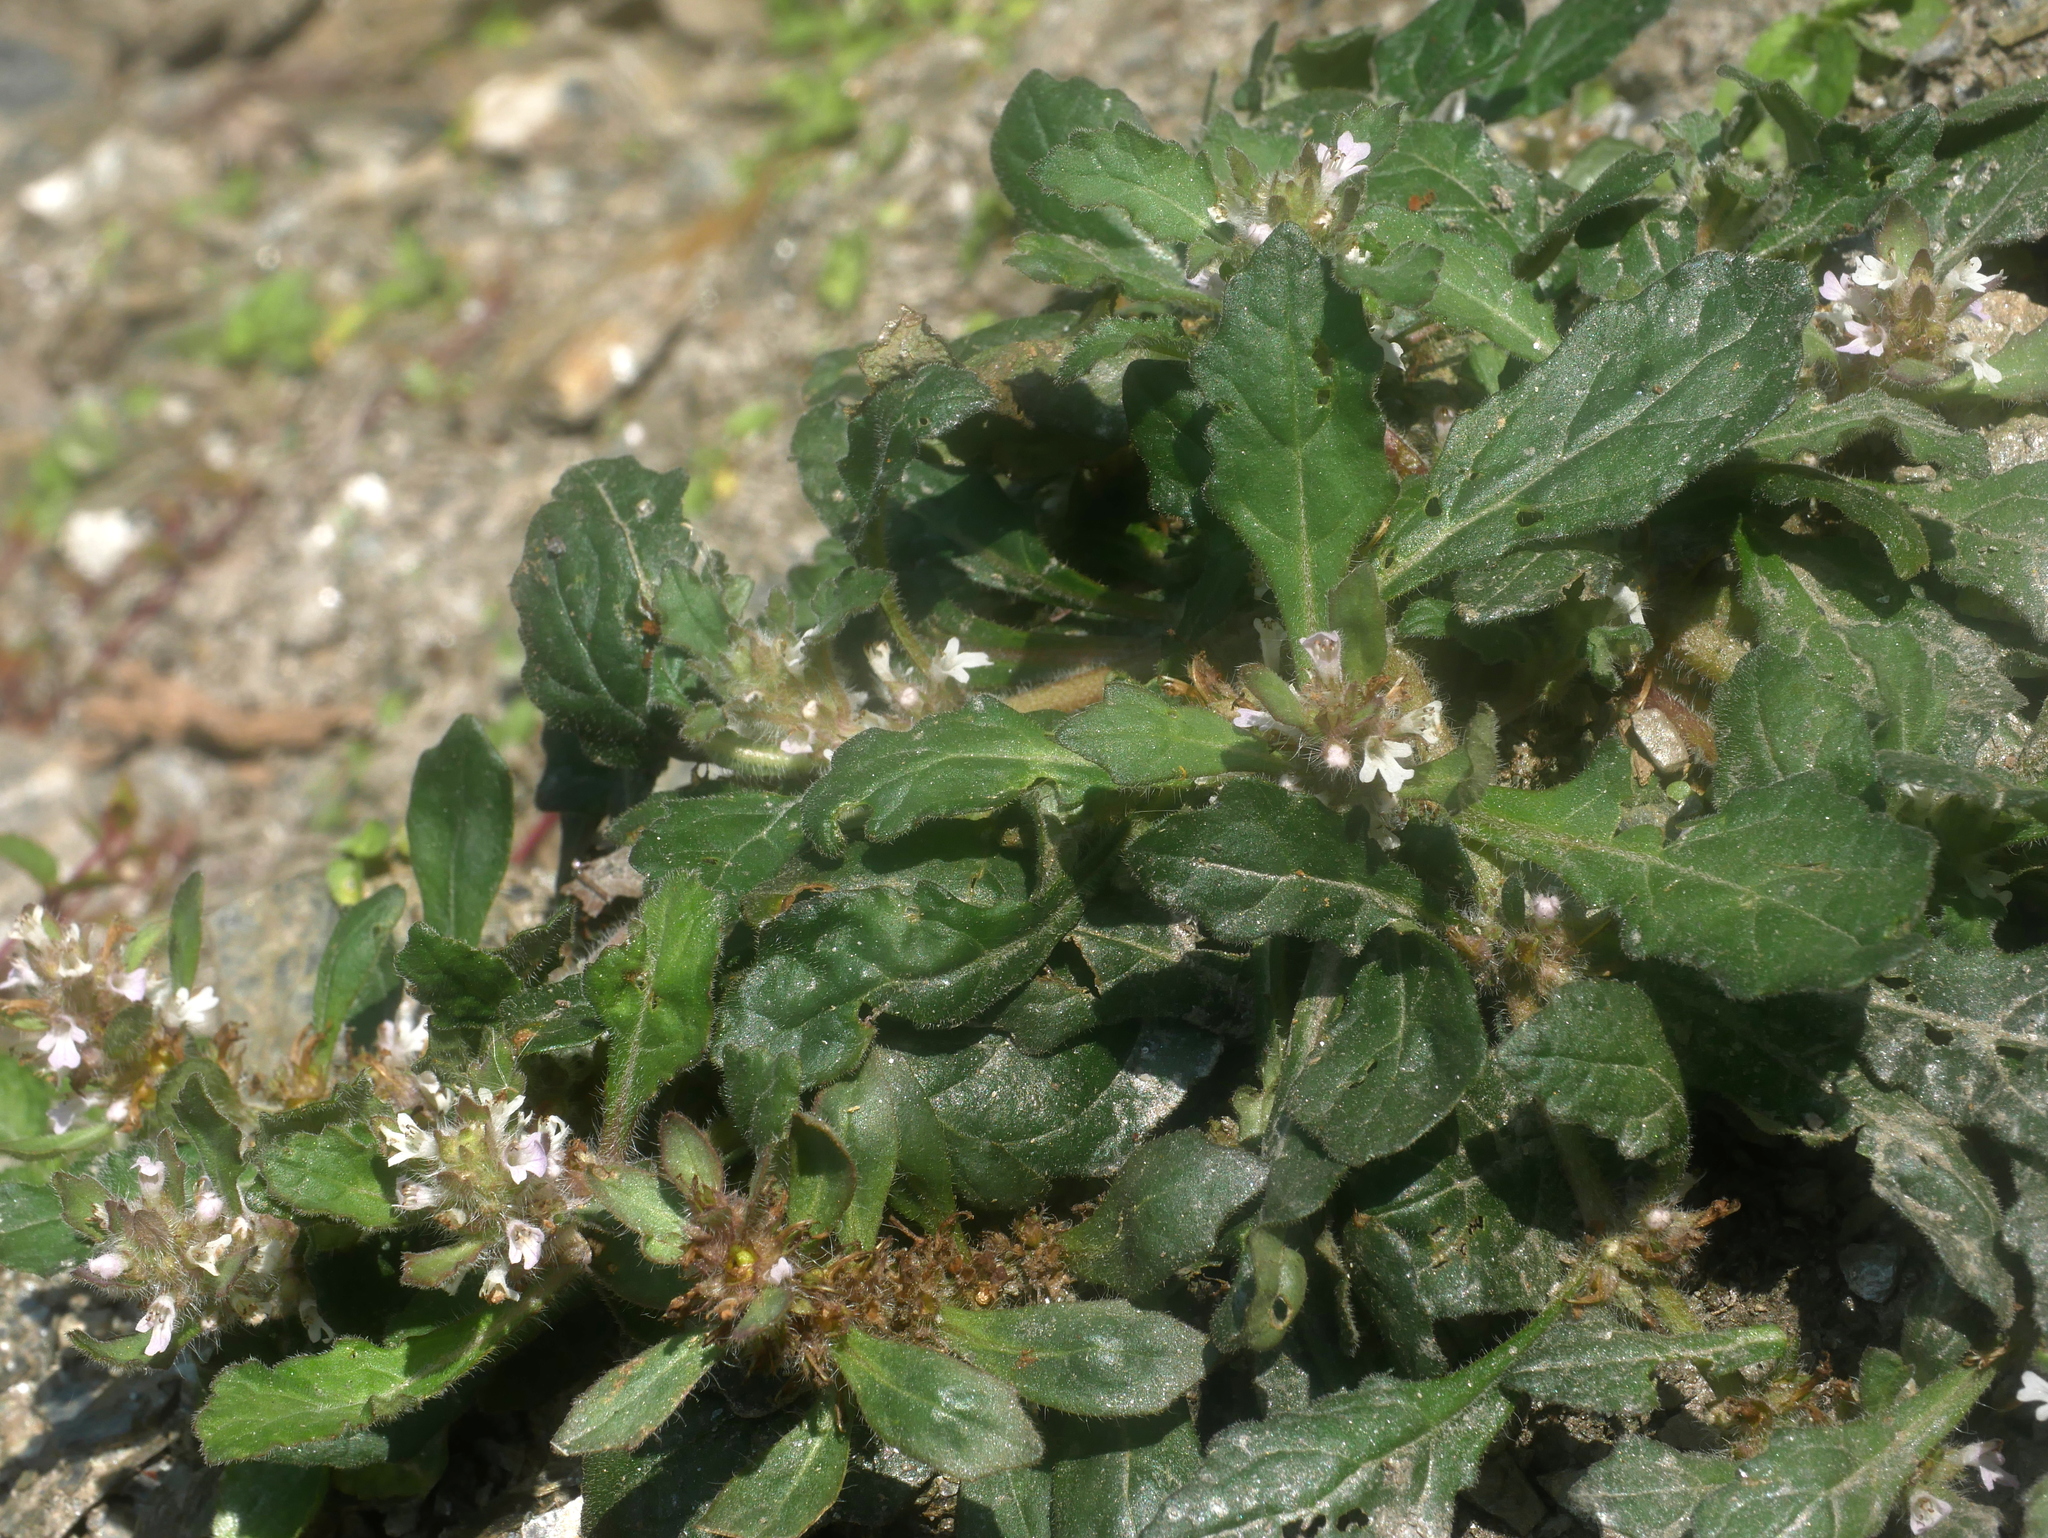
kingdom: Plantae
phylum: Tracheophyta
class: Magnoliopsida
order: Lamiales
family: Lamiaceae
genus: Ajuga
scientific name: Ajuga taiwanensis
